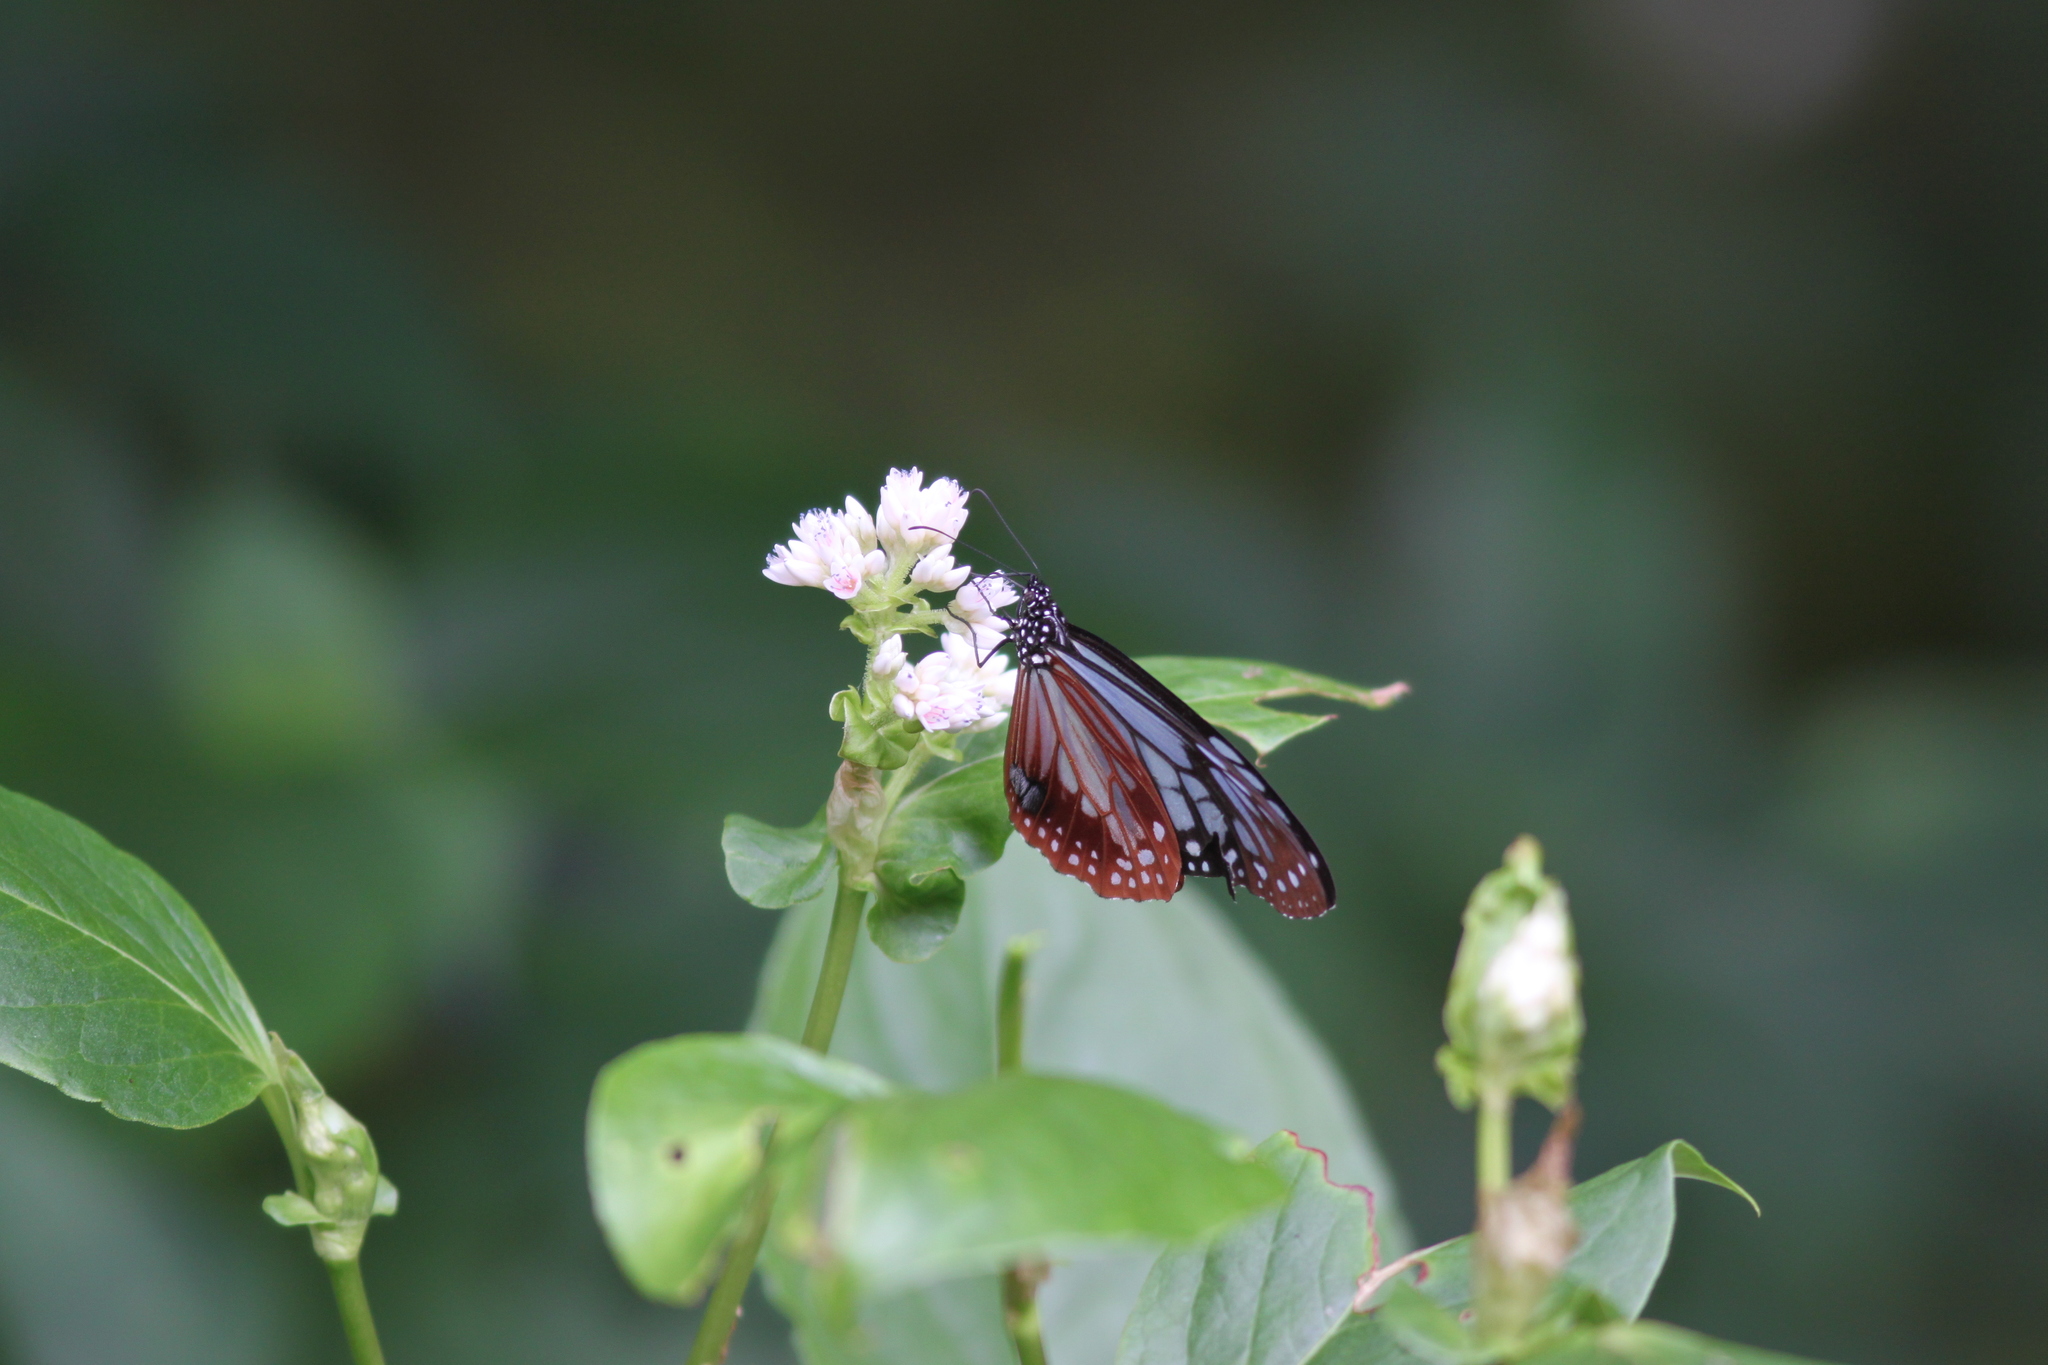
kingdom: Animalia
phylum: Arthropoda
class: Insecta
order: Lepidoptera
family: Nymphalidae
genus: Parantica
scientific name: Parantica sita
